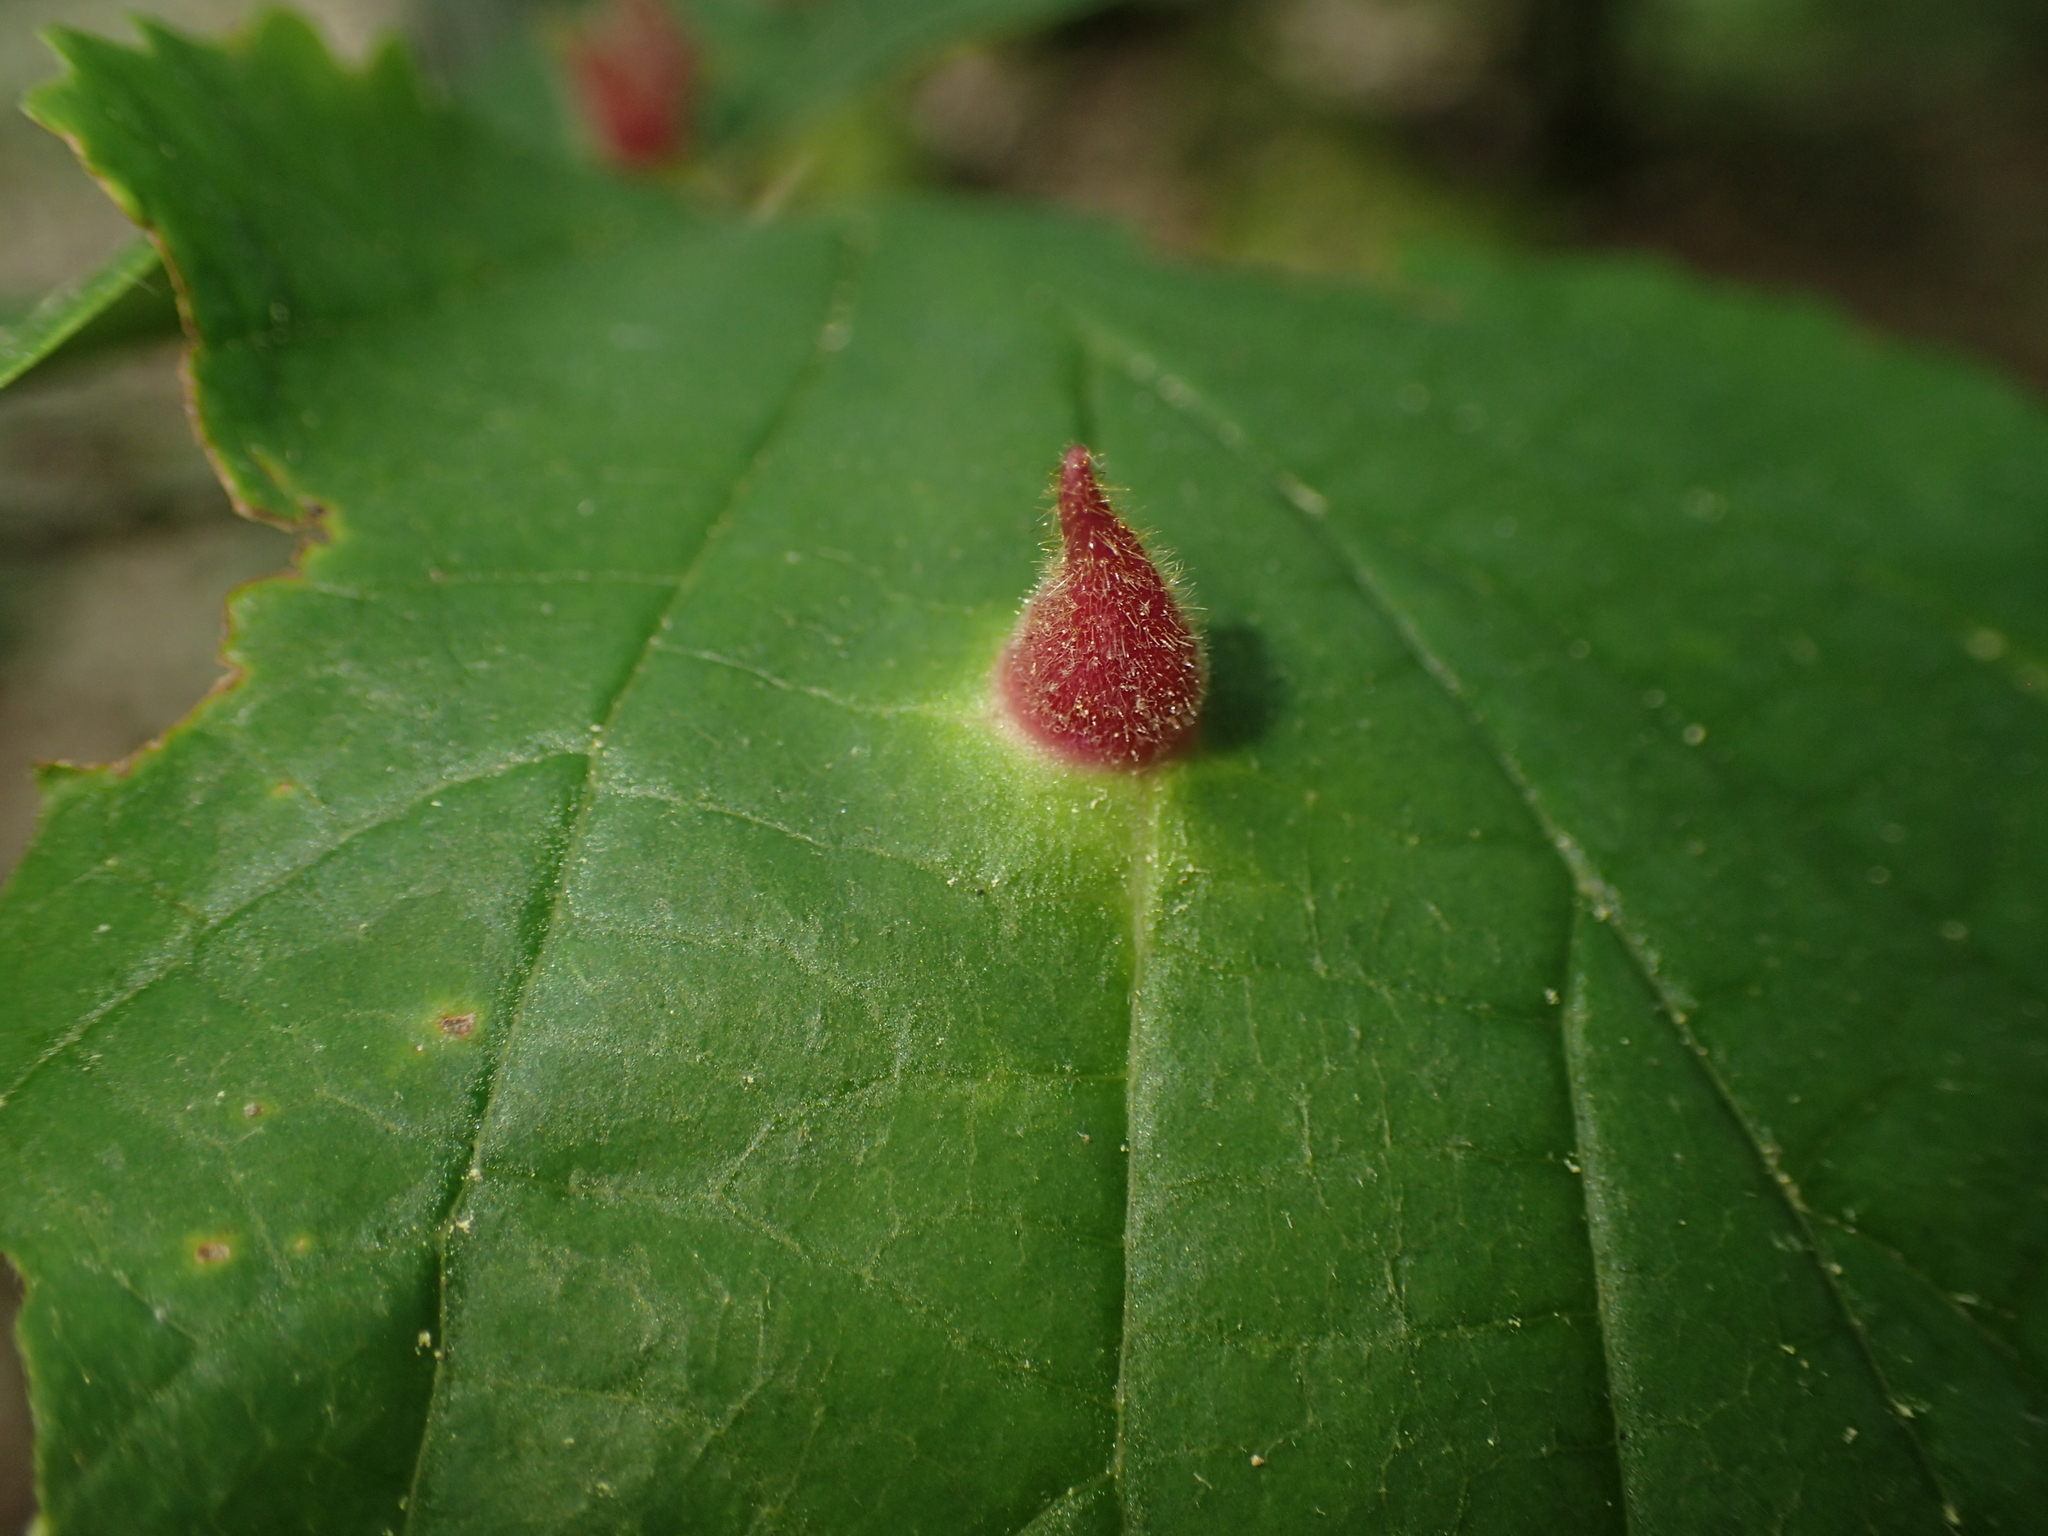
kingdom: Animalia
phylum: Arthropoda
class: Insecta
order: Hemiptera
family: Aphididae
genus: Hormaphis
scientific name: Hormaphis hamamelidis
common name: Witch-hazel cone gall aphid
